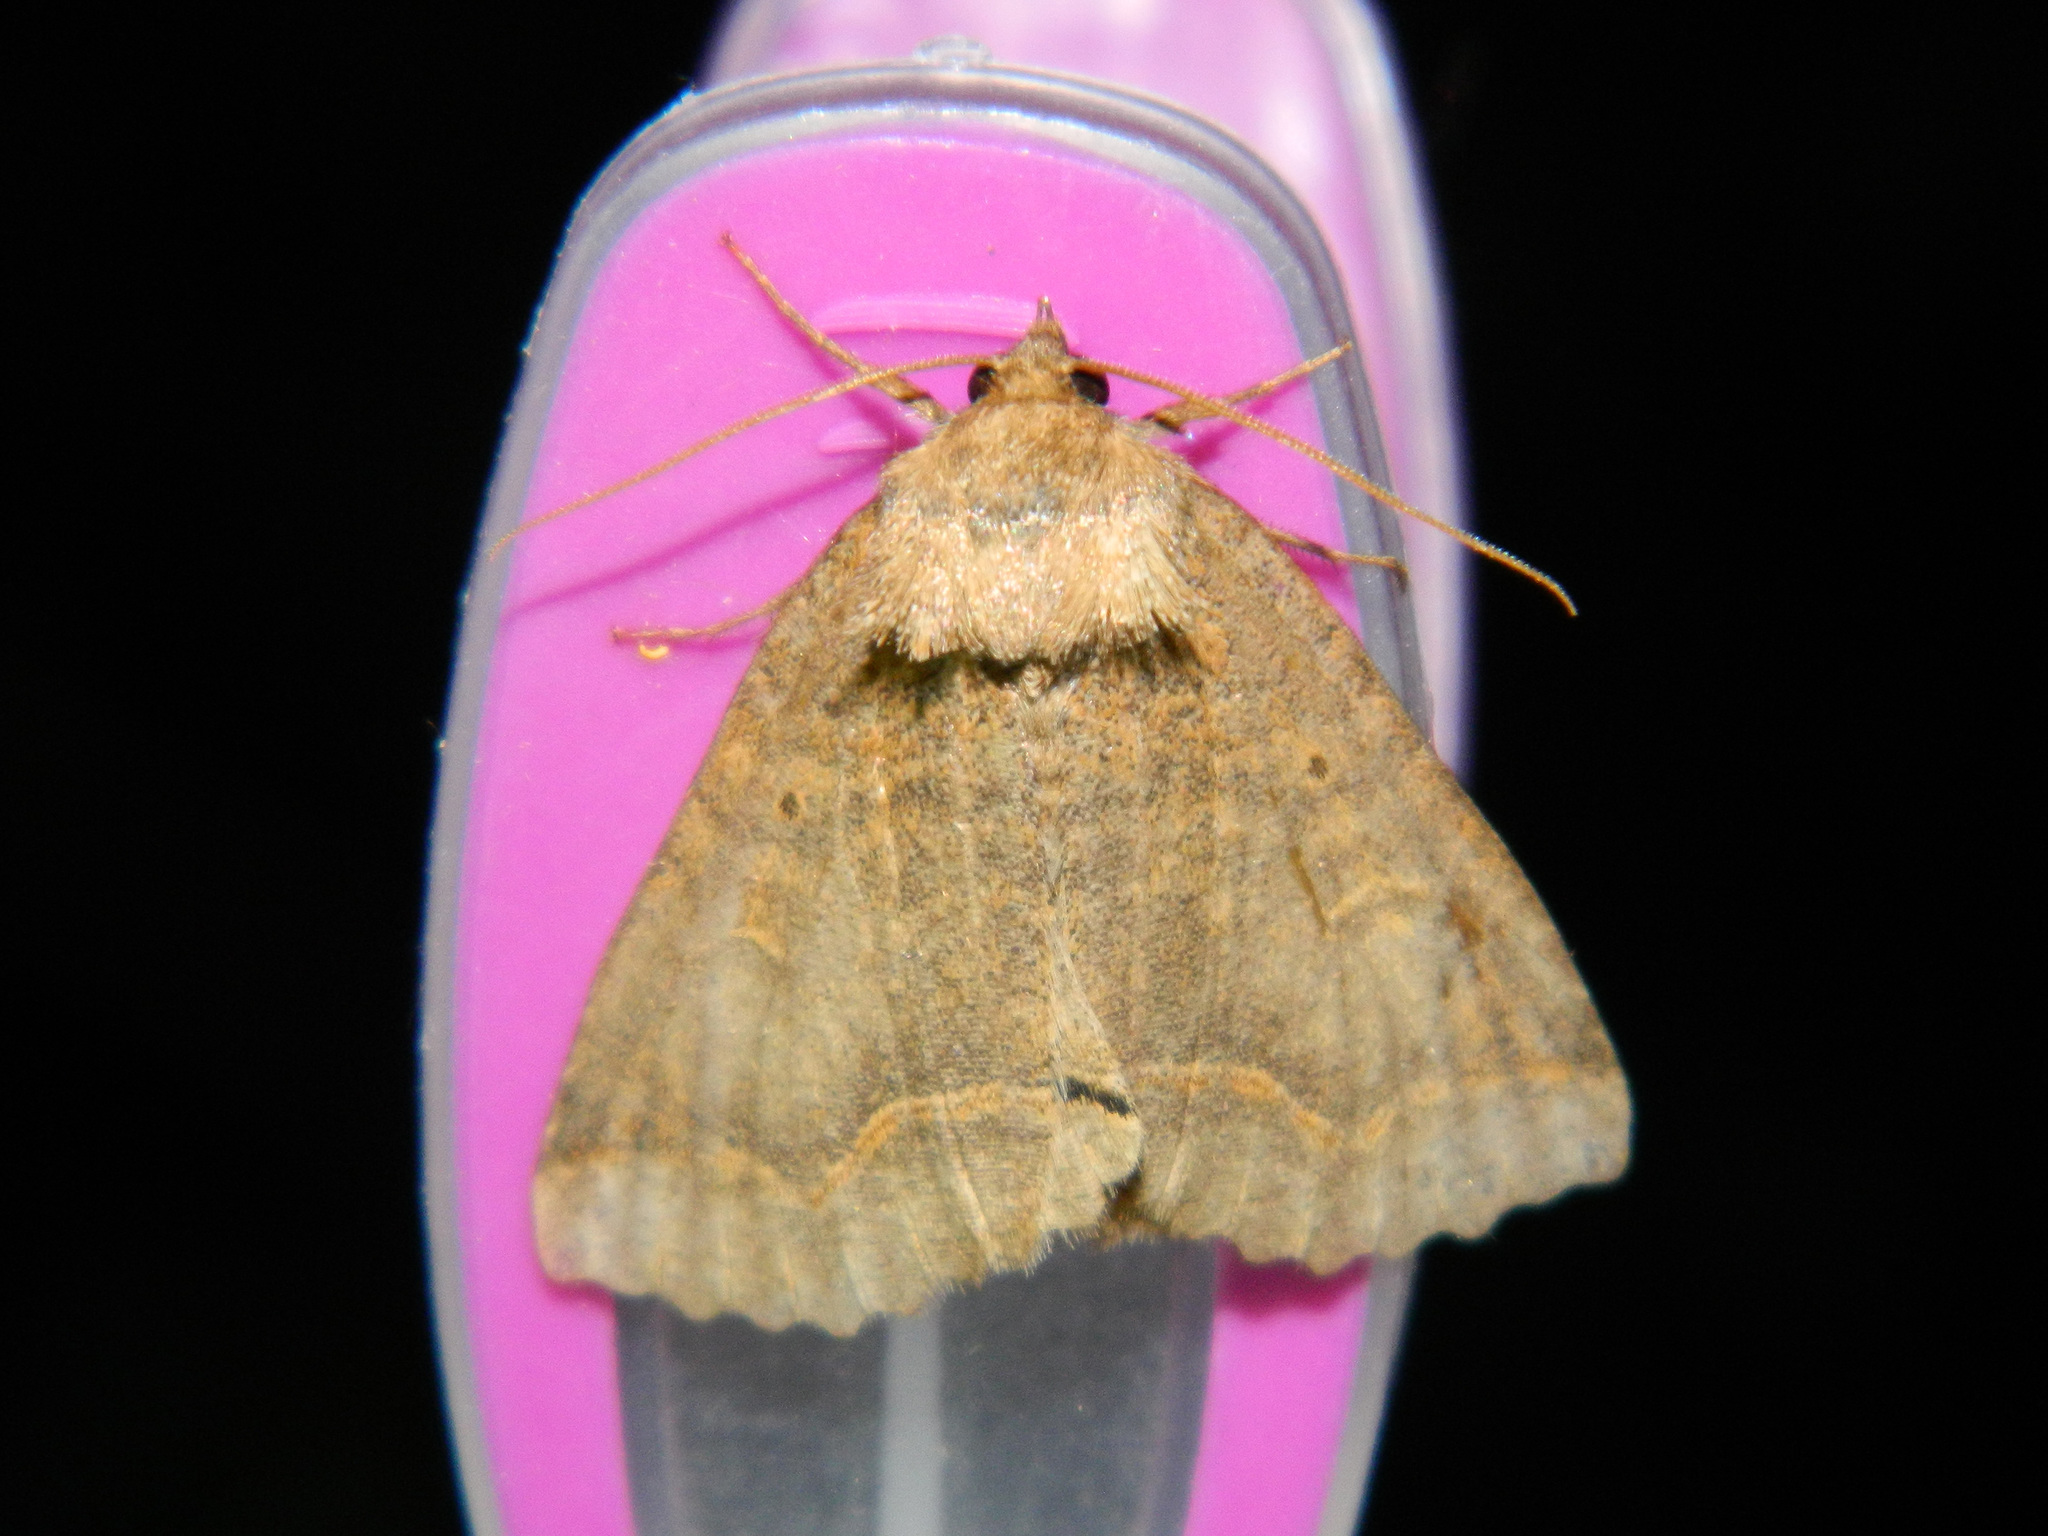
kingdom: Animalia
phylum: Arthropoda
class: Insecta
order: Lepidoptera
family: Erebidae
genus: Zale
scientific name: Zale unilineata
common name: One-lined zale moth
